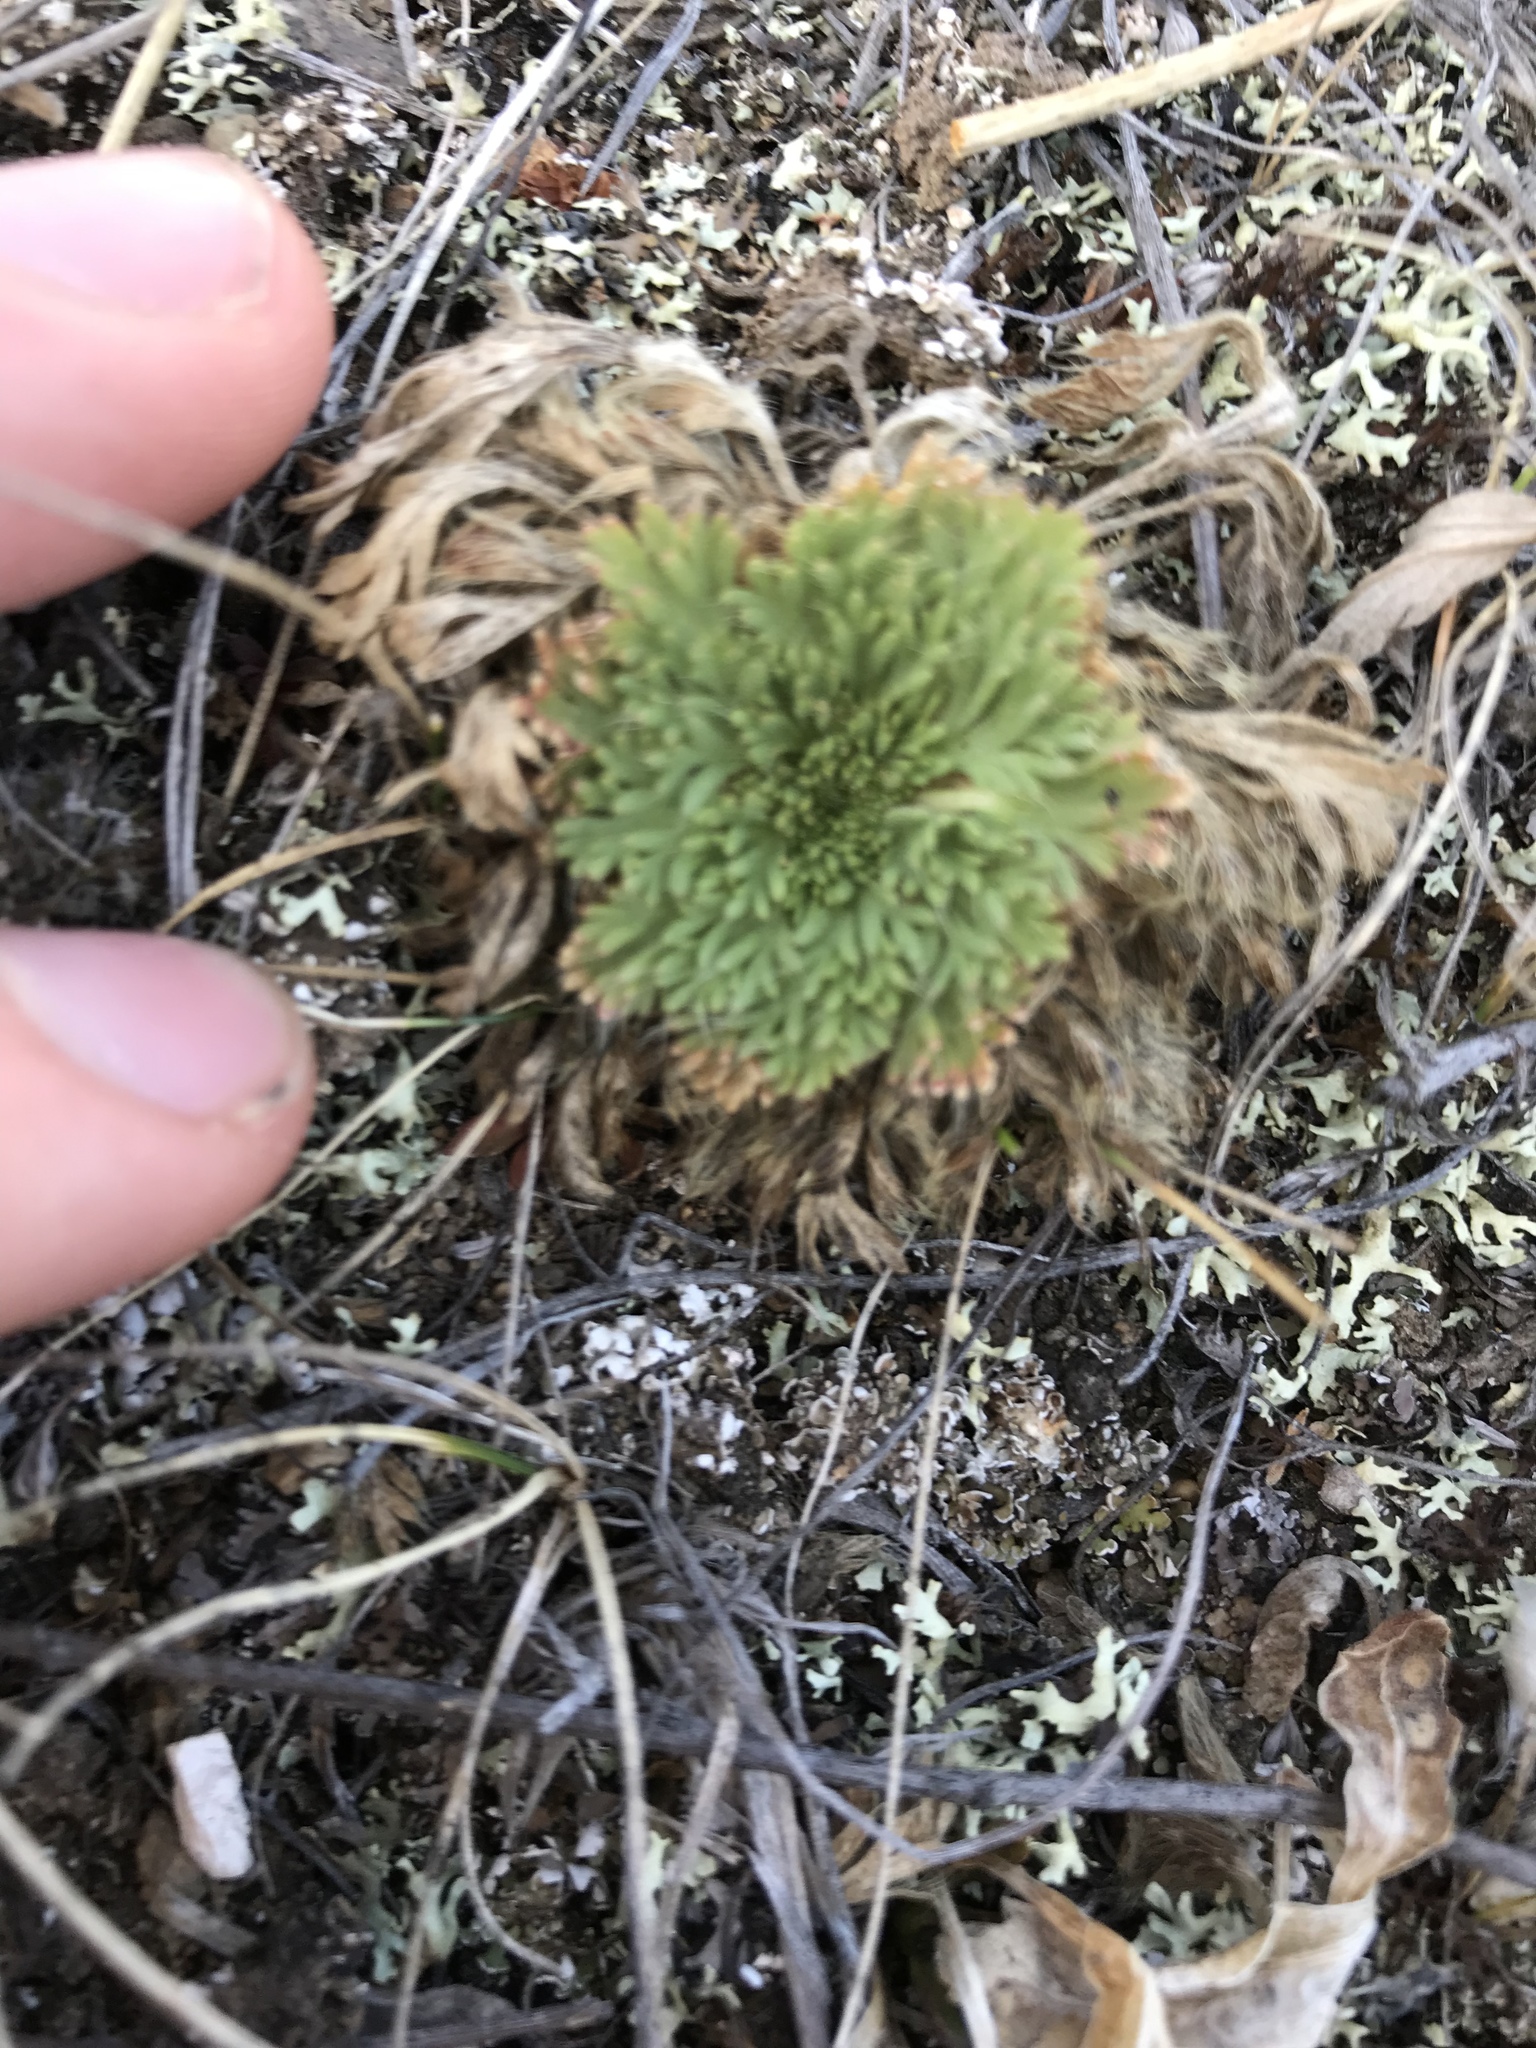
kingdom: Plantae
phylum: Tracheophyta
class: Magnoliopsida
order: Rosales
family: Rosaceae
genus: Chamaerhodos
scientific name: Chamaerhodos erecta
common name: American chamaerhodos
